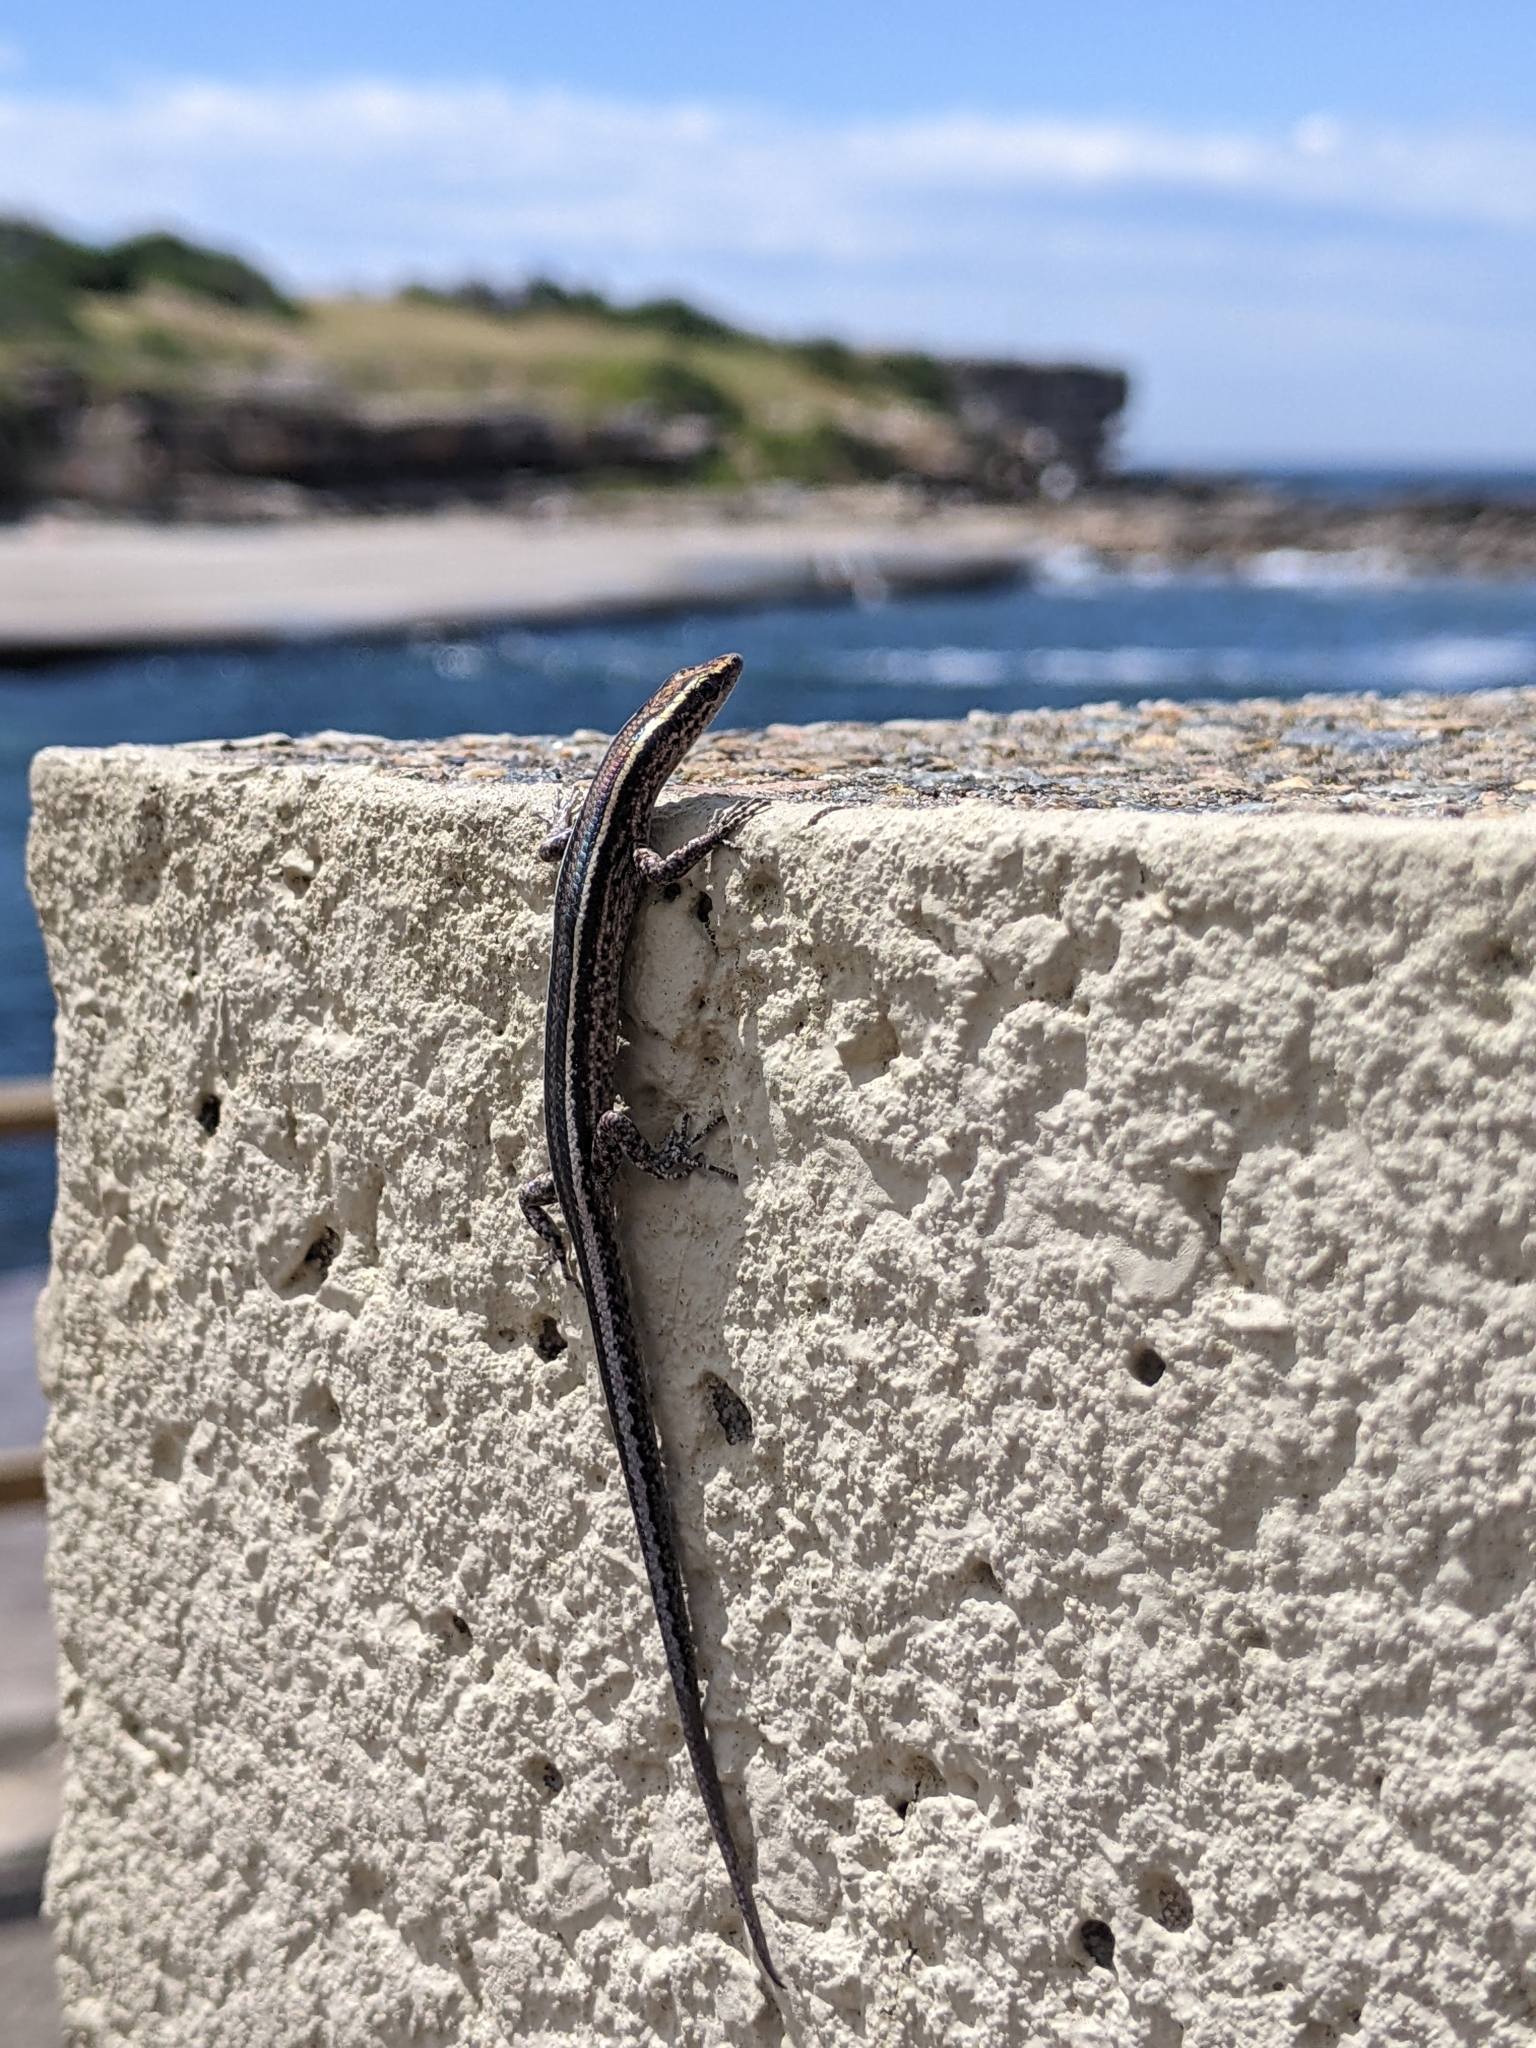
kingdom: Animalia
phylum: Chordata
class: Squamata
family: Scincidae
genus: Cryptoblepharus
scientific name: Cryptoblepharus pulcher
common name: Elegant snake-eyed skink
